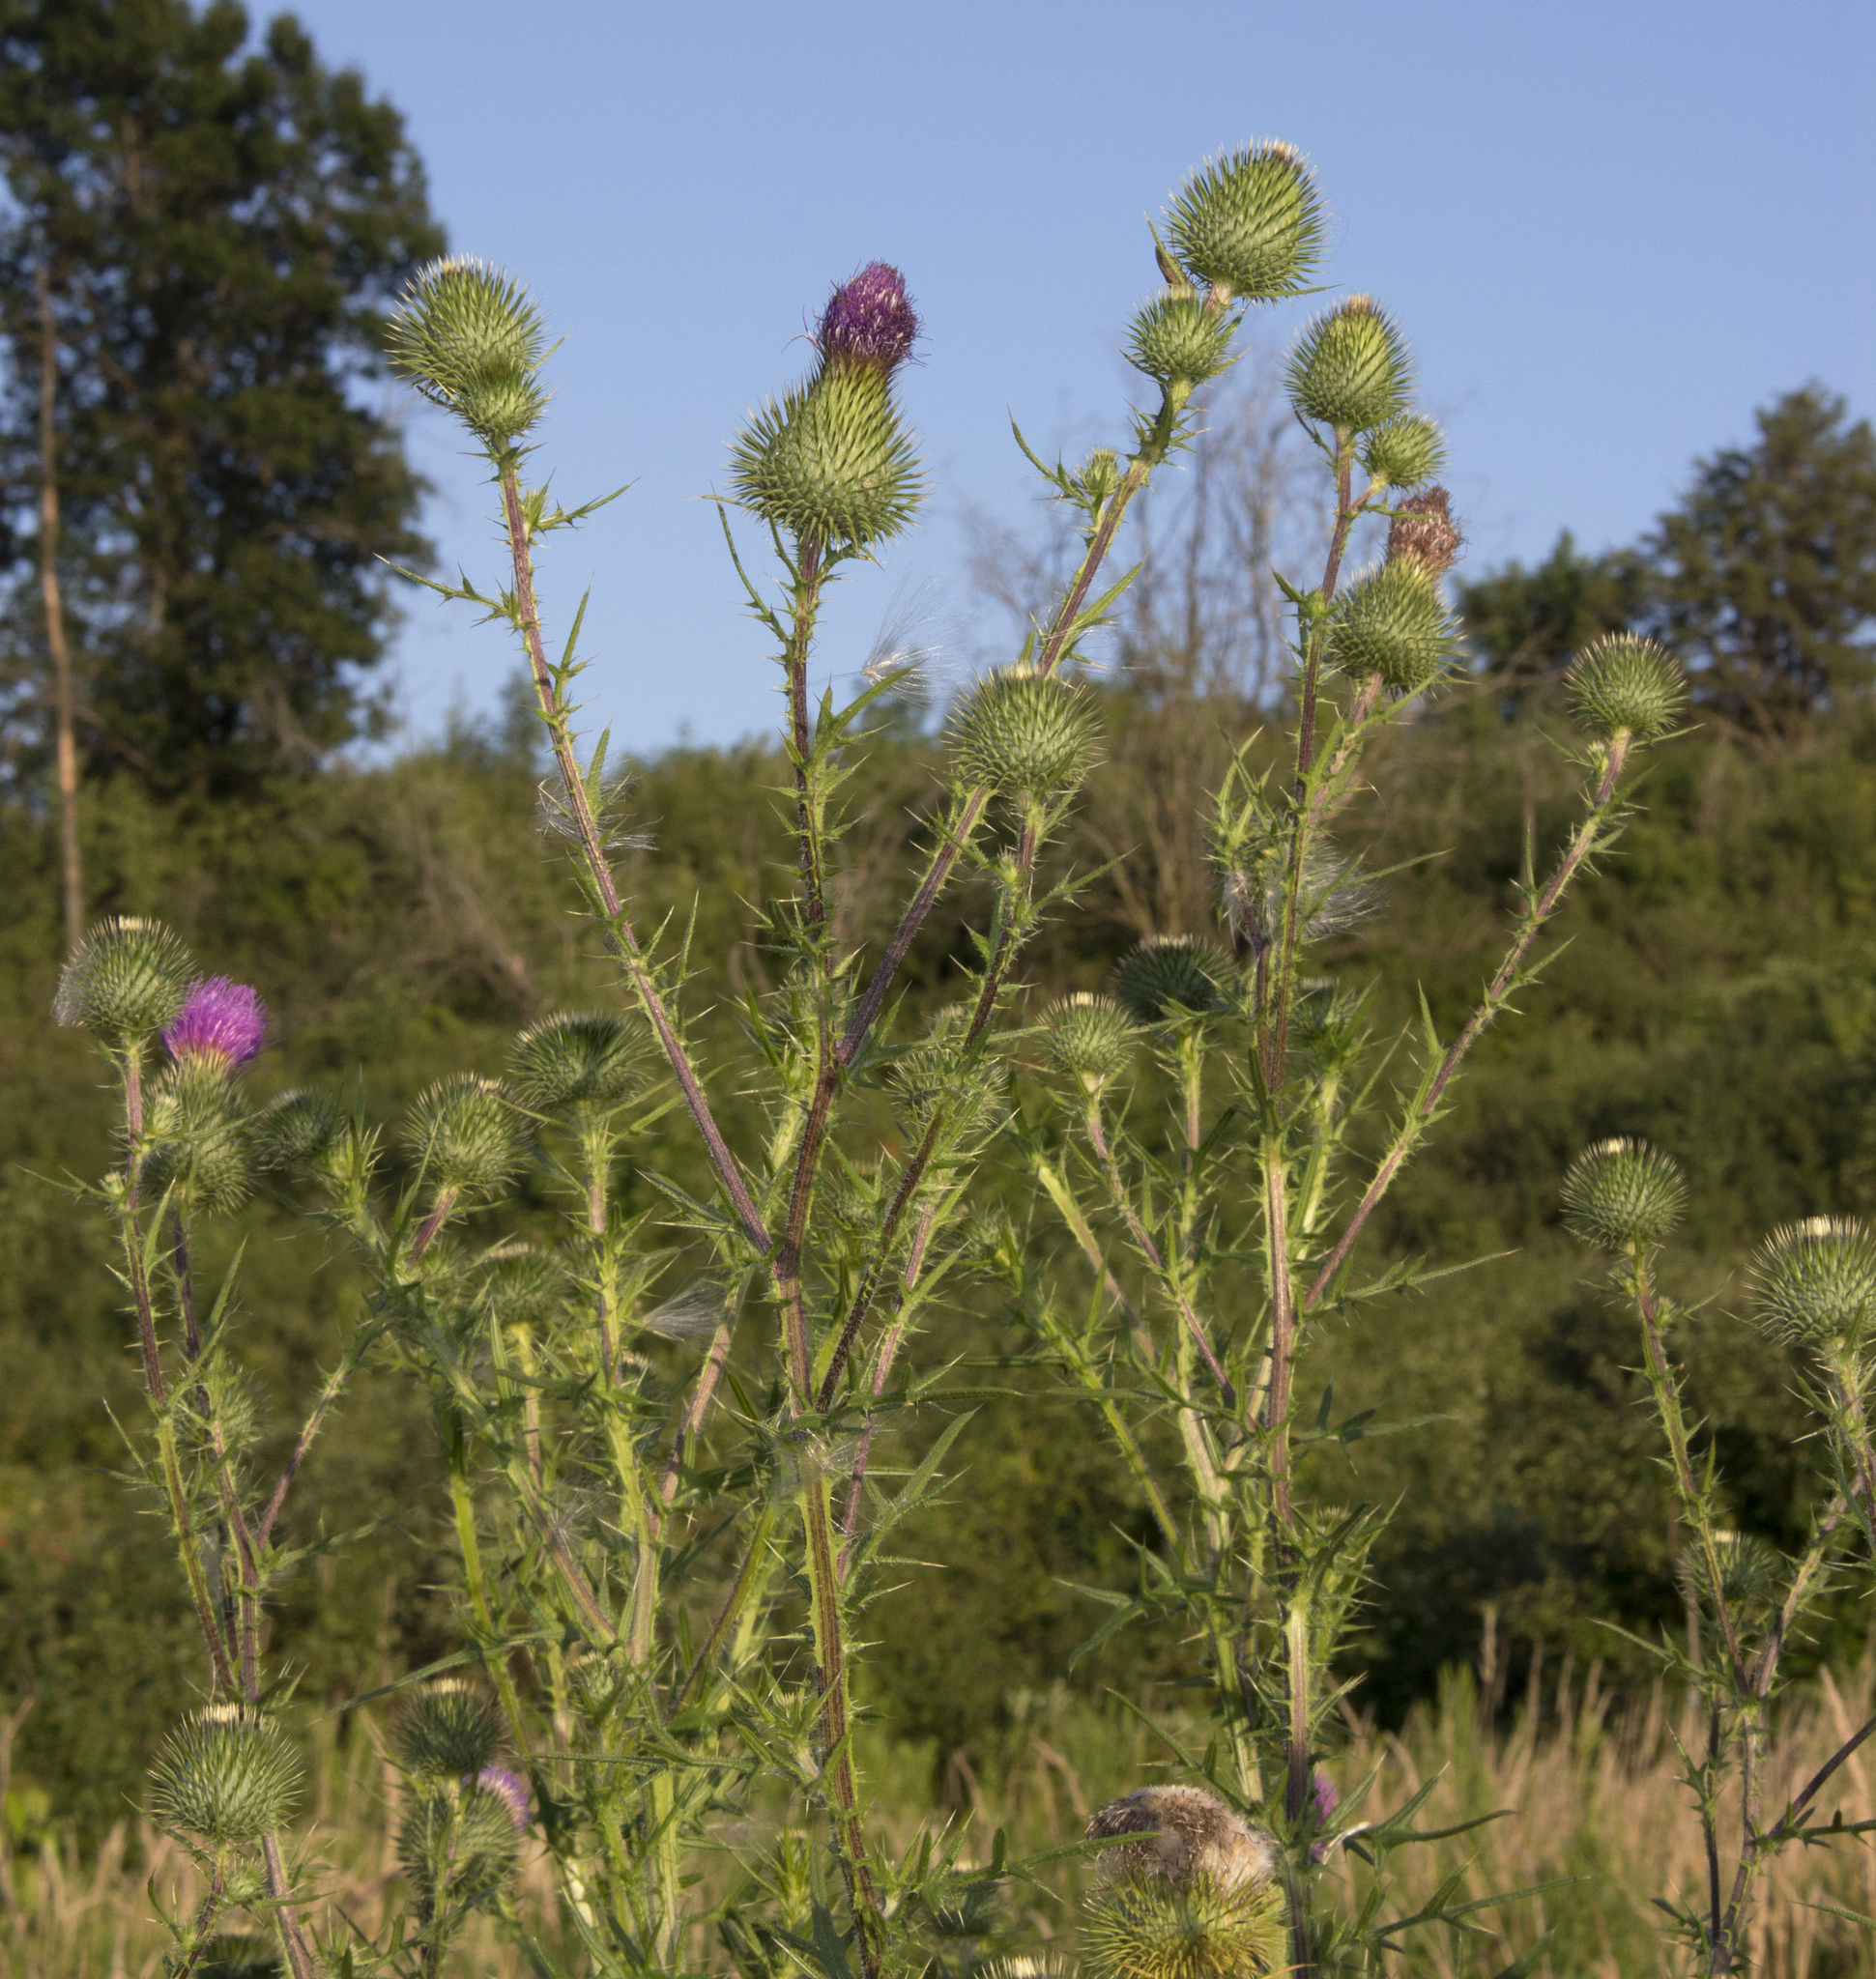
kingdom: Plantae
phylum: Tracheophyta
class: Magnoliopsida
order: Asterales
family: Asteraceae
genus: Cirsium
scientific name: Cirsium vulgare
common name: Bull thistle
